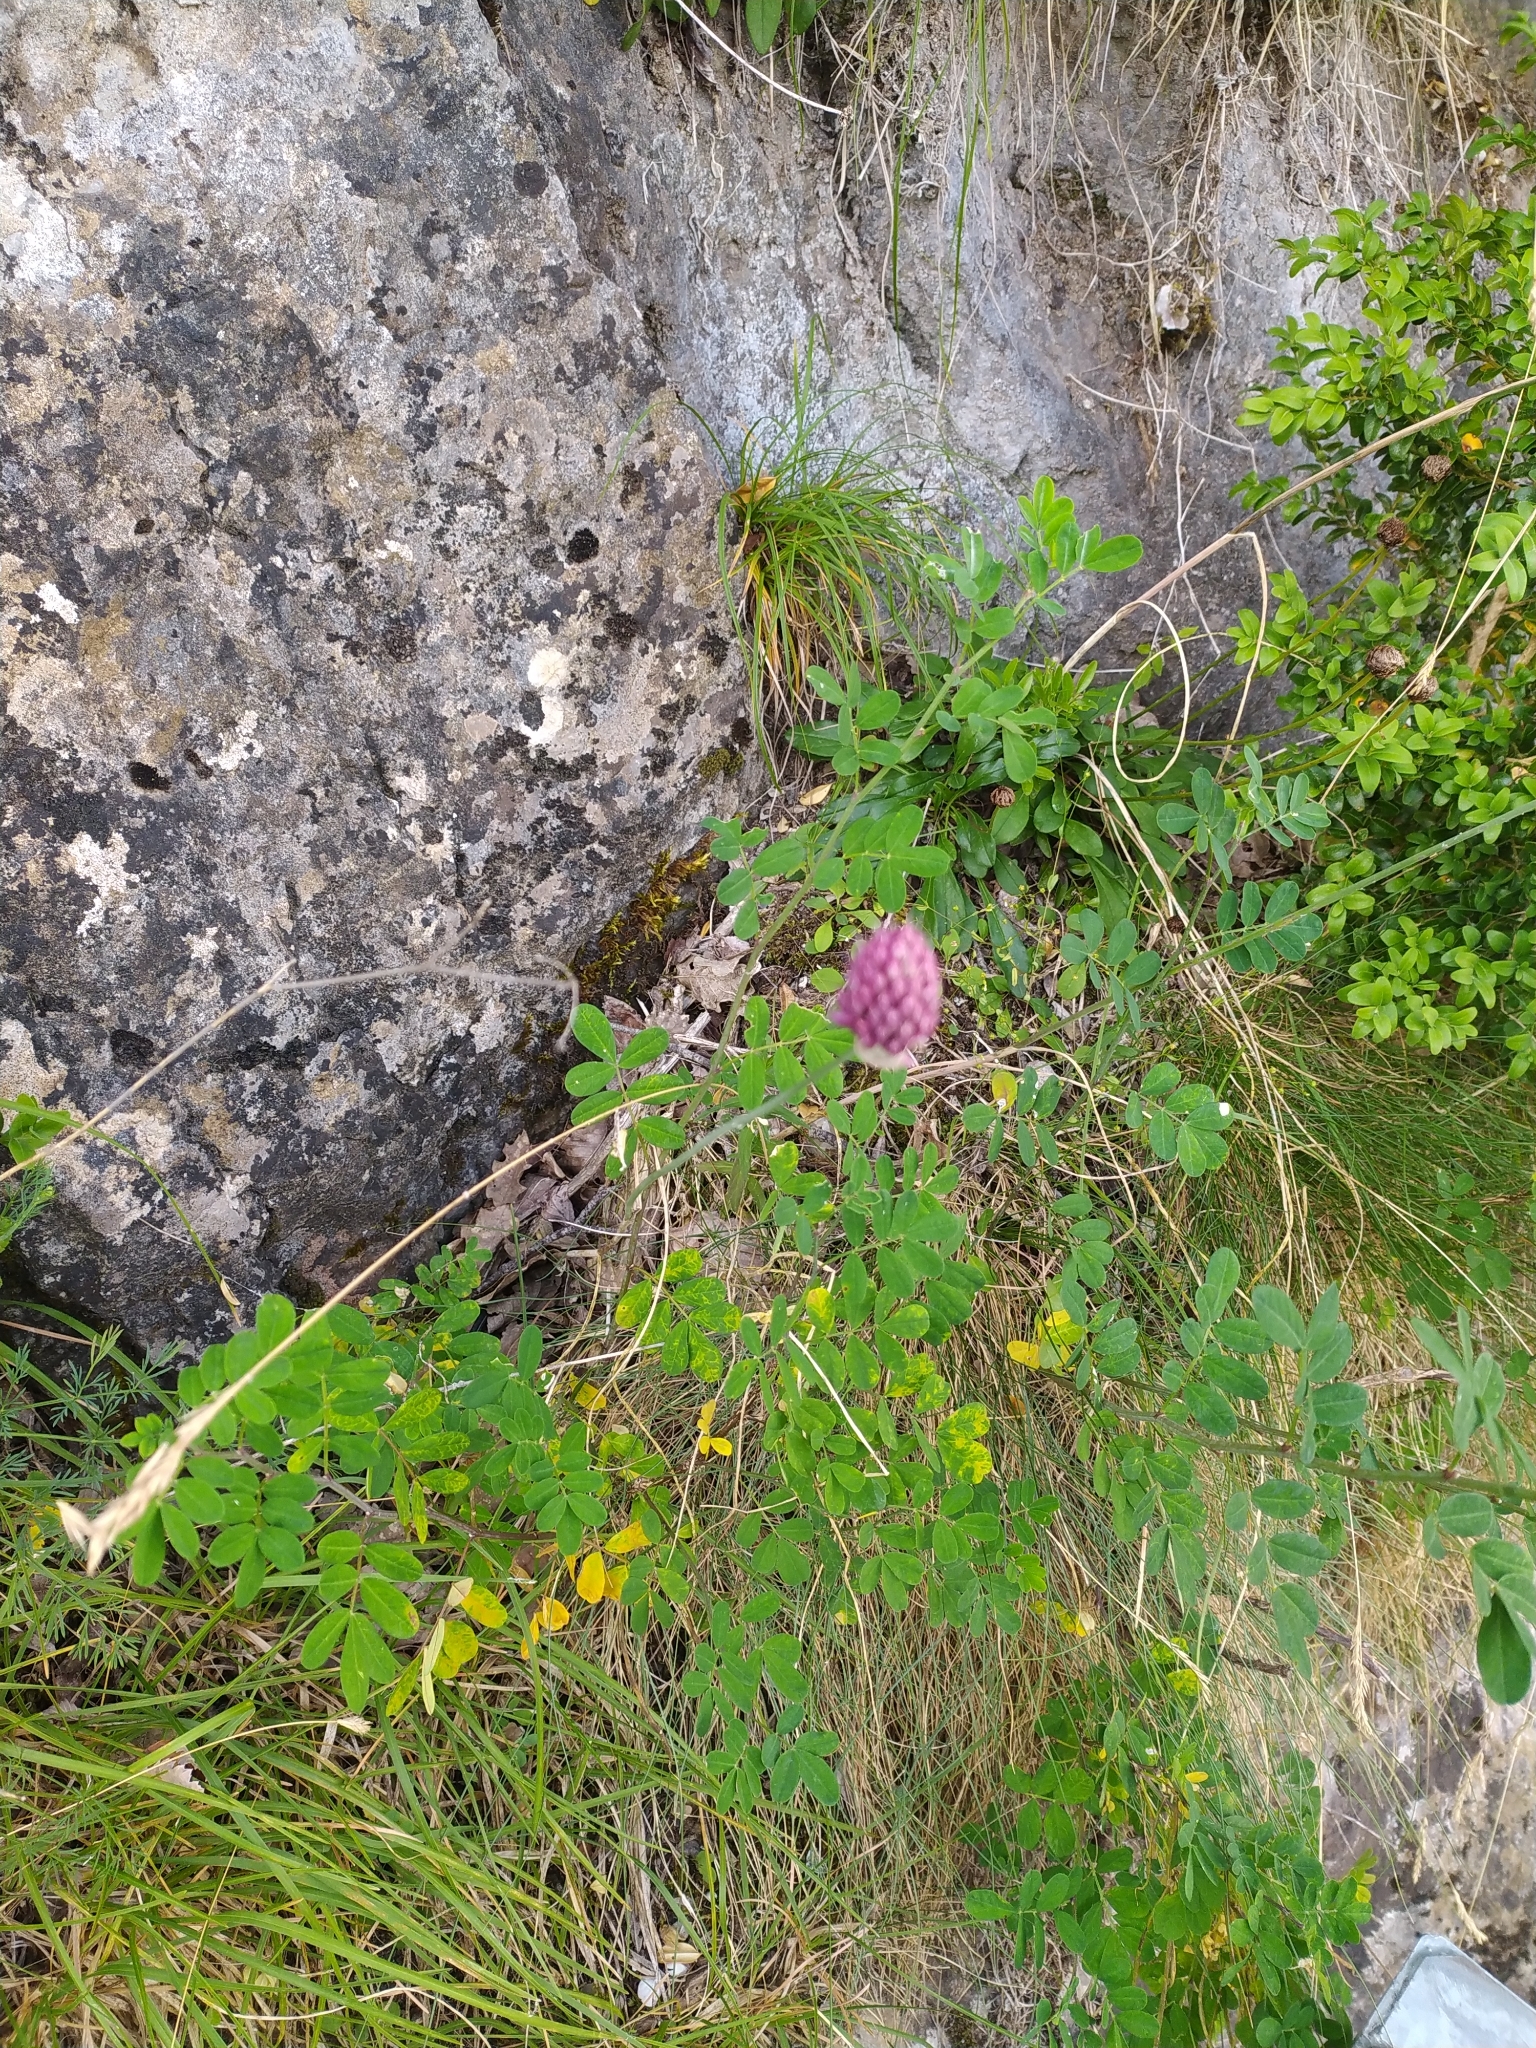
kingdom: Plantae
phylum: Tracheophyta
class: Liliopsida
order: Asparagales
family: Amaryllidaceae
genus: Allium
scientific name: Allium sphaerocephalon
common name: Round-headed leek
